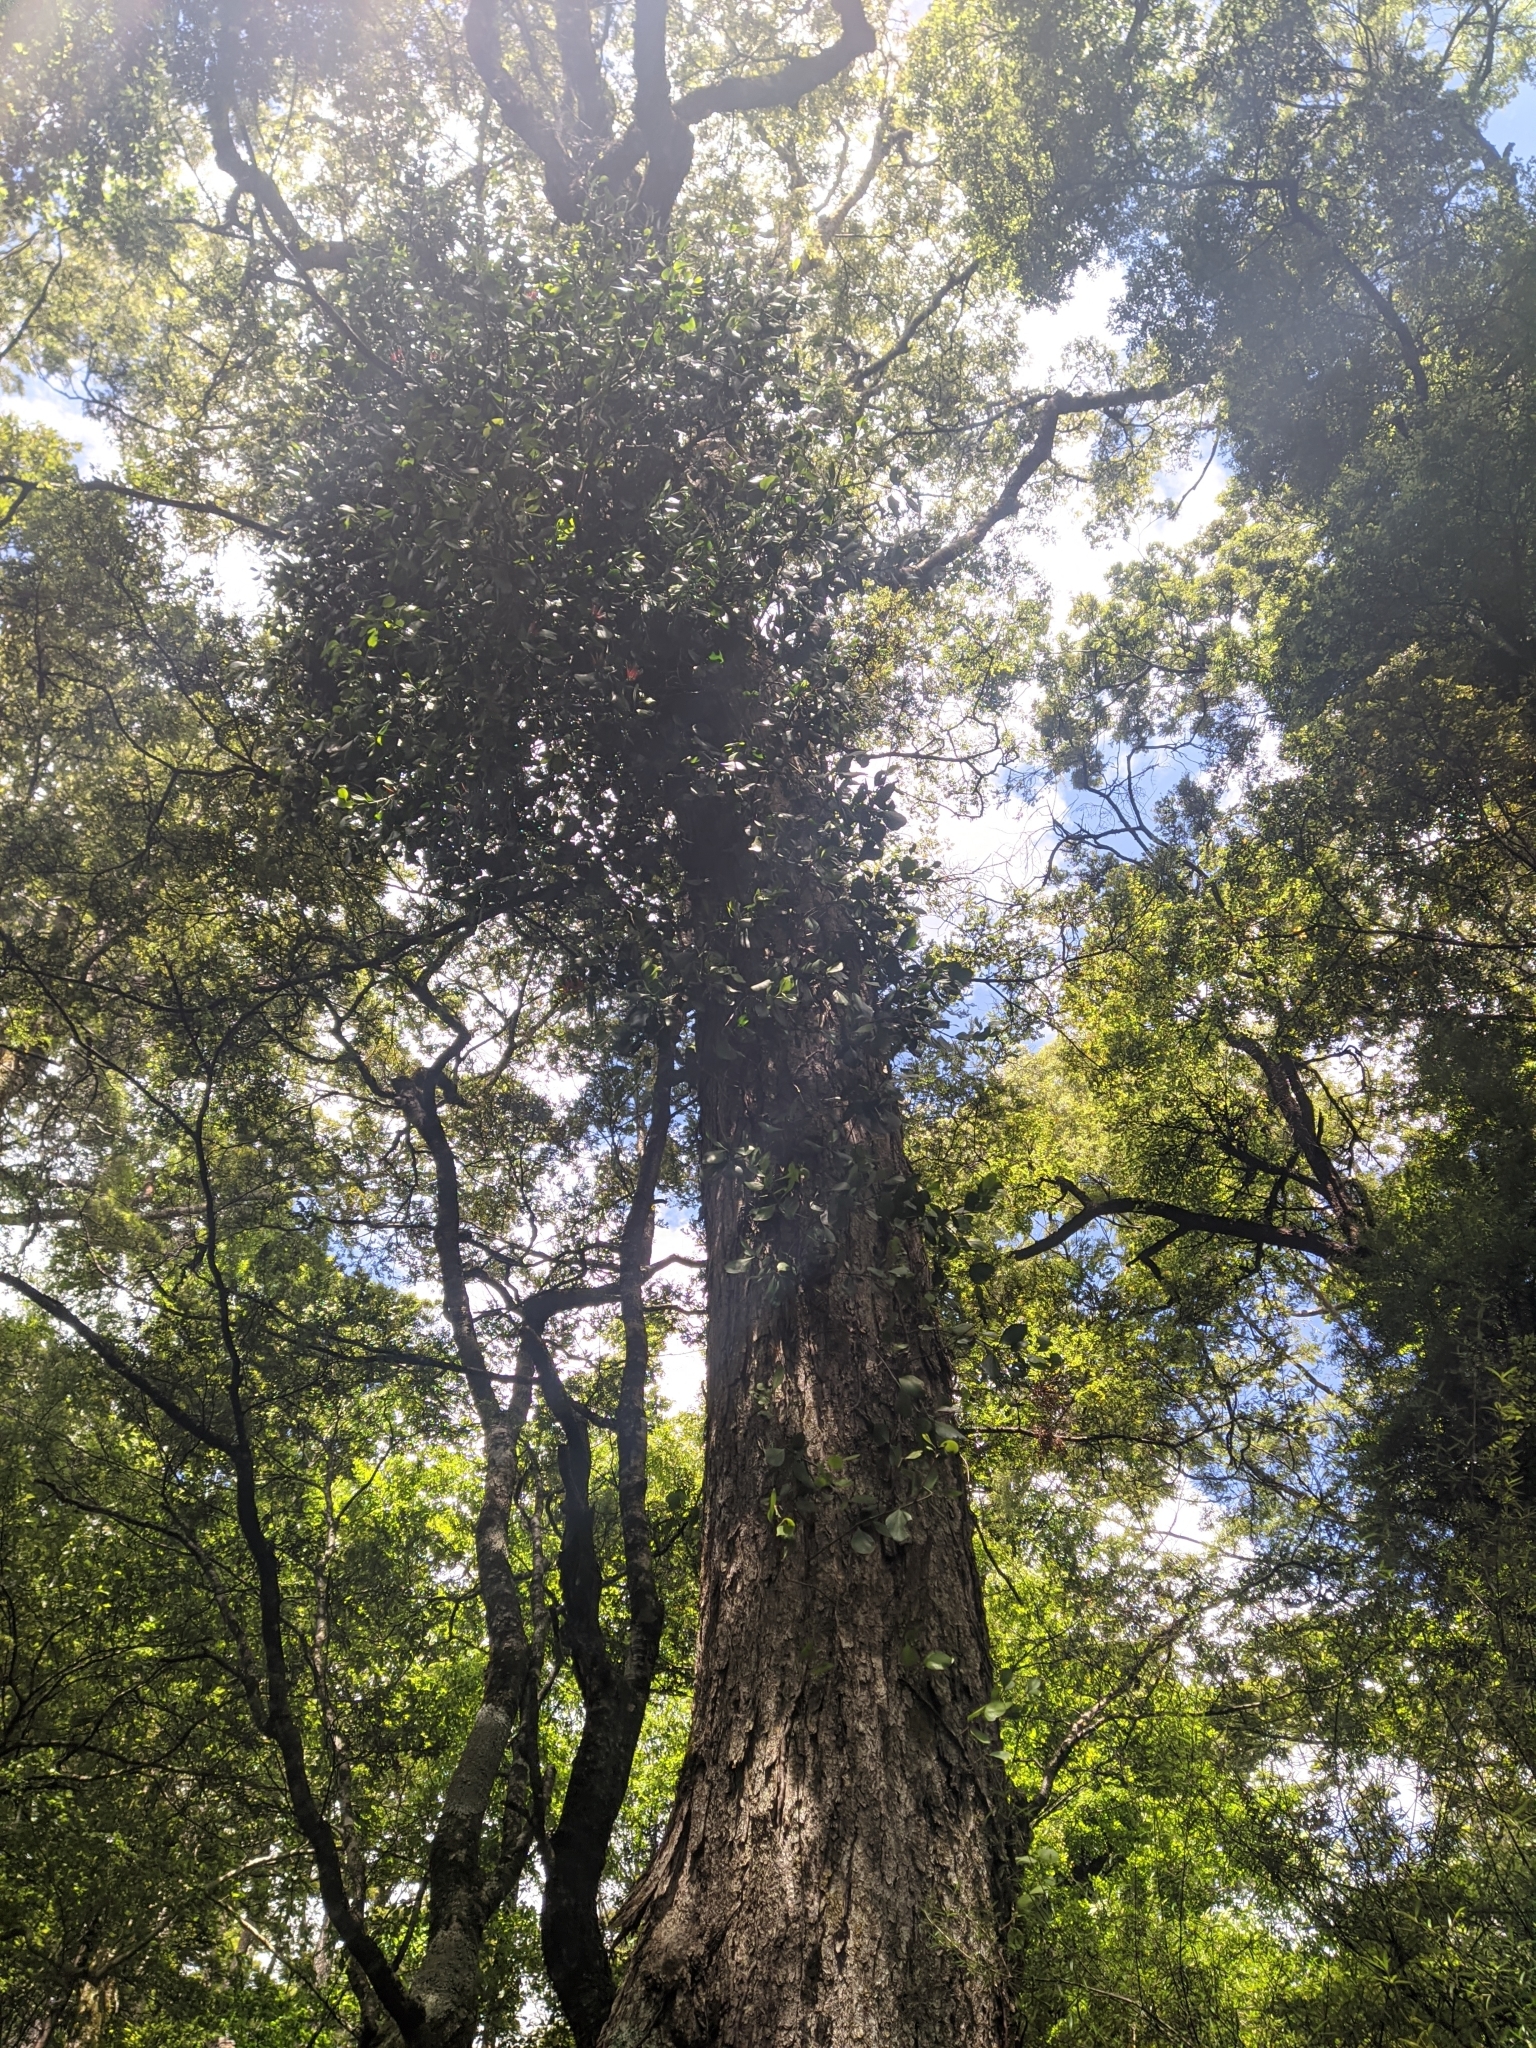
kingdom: Plantae
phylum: Tracheophyta
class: Magnoliopsida
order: Santalales
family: Loranthaceae
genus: Peraxilla
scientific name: Peraxilla tetrapetala
